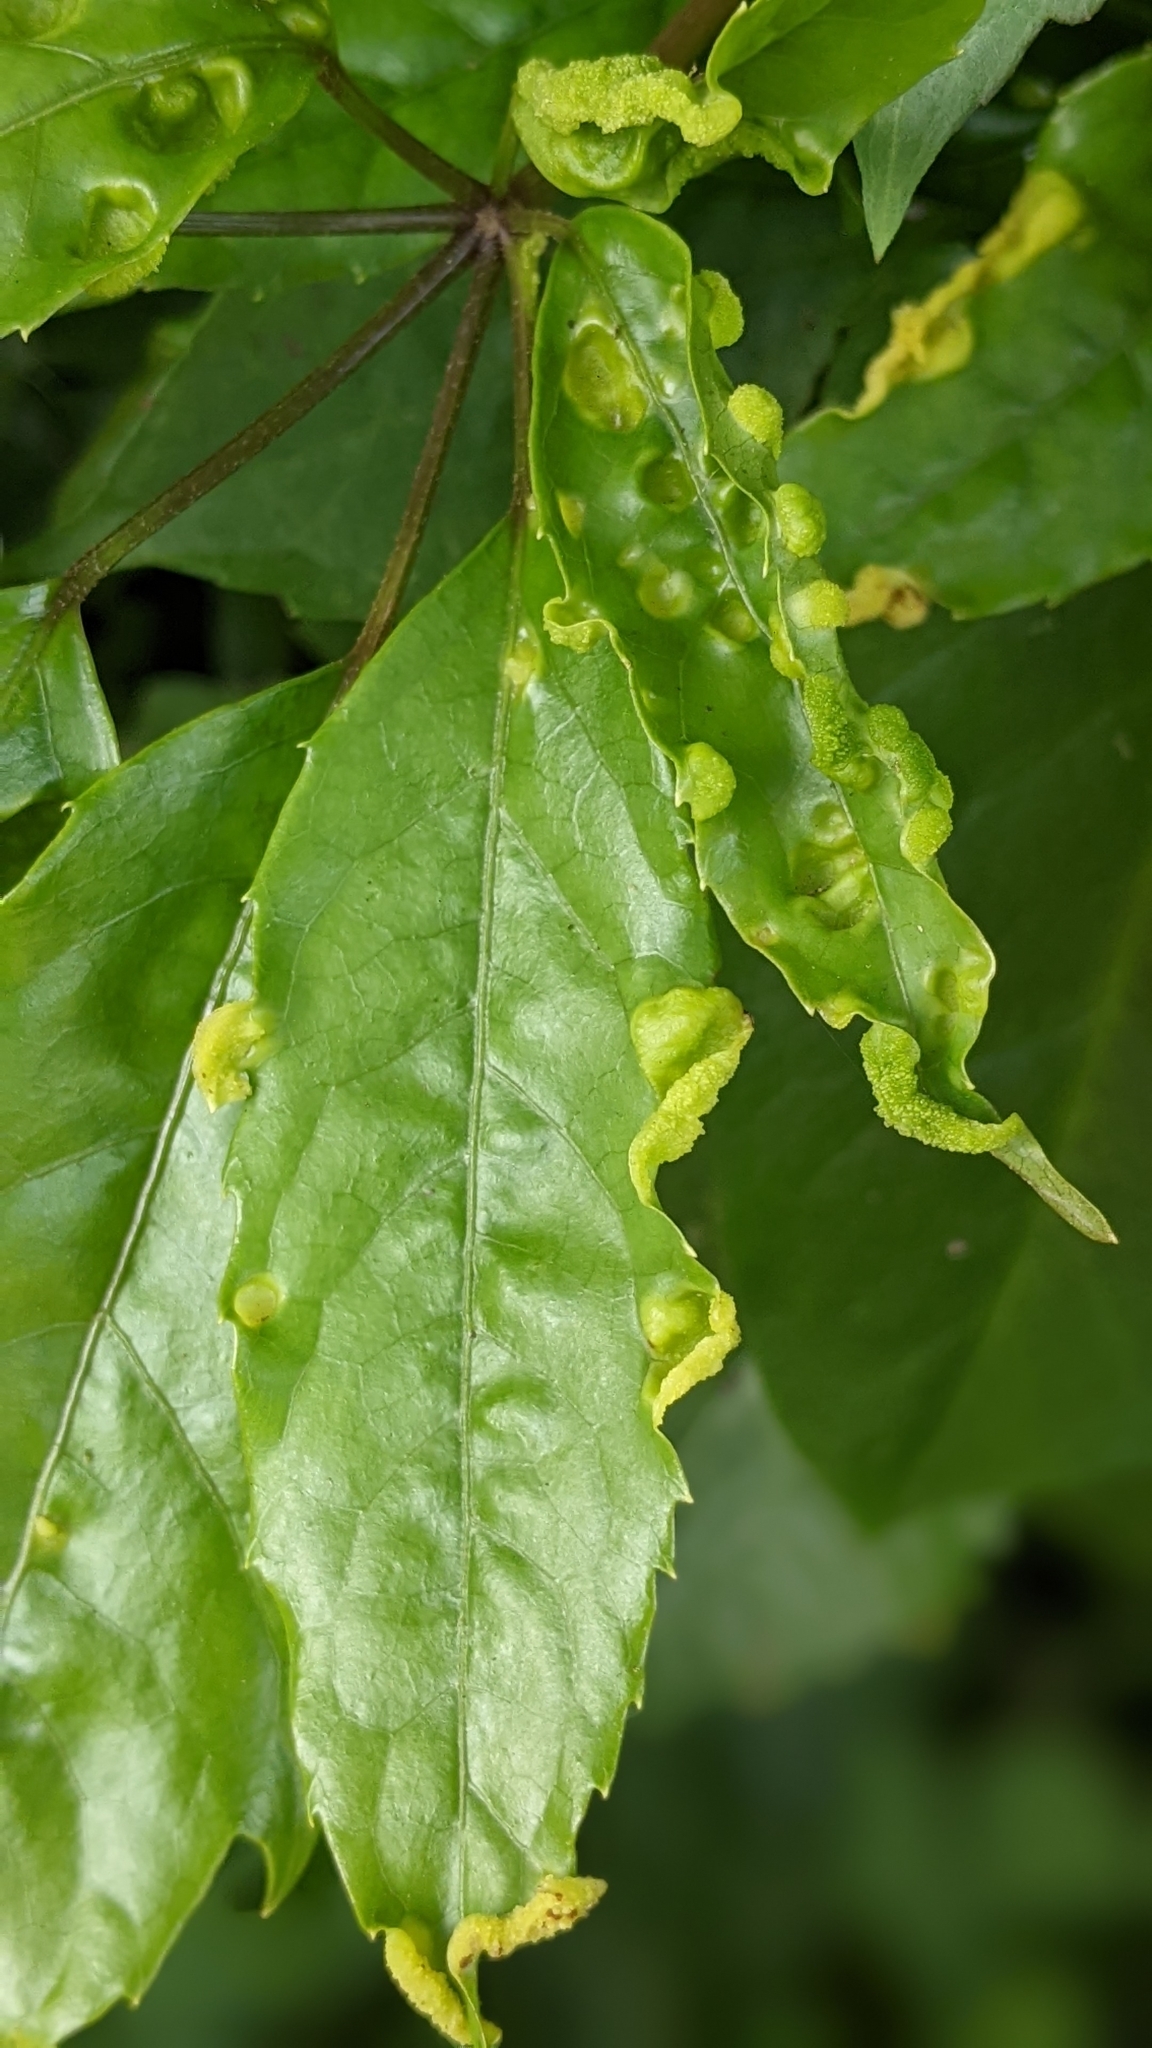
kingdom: Plantae
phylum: Tracheophyta
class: Magnoliopsida
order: Apiales
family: Araliaceae
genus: Heptapleurum
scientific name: Heptapleurum heptaphyllum
